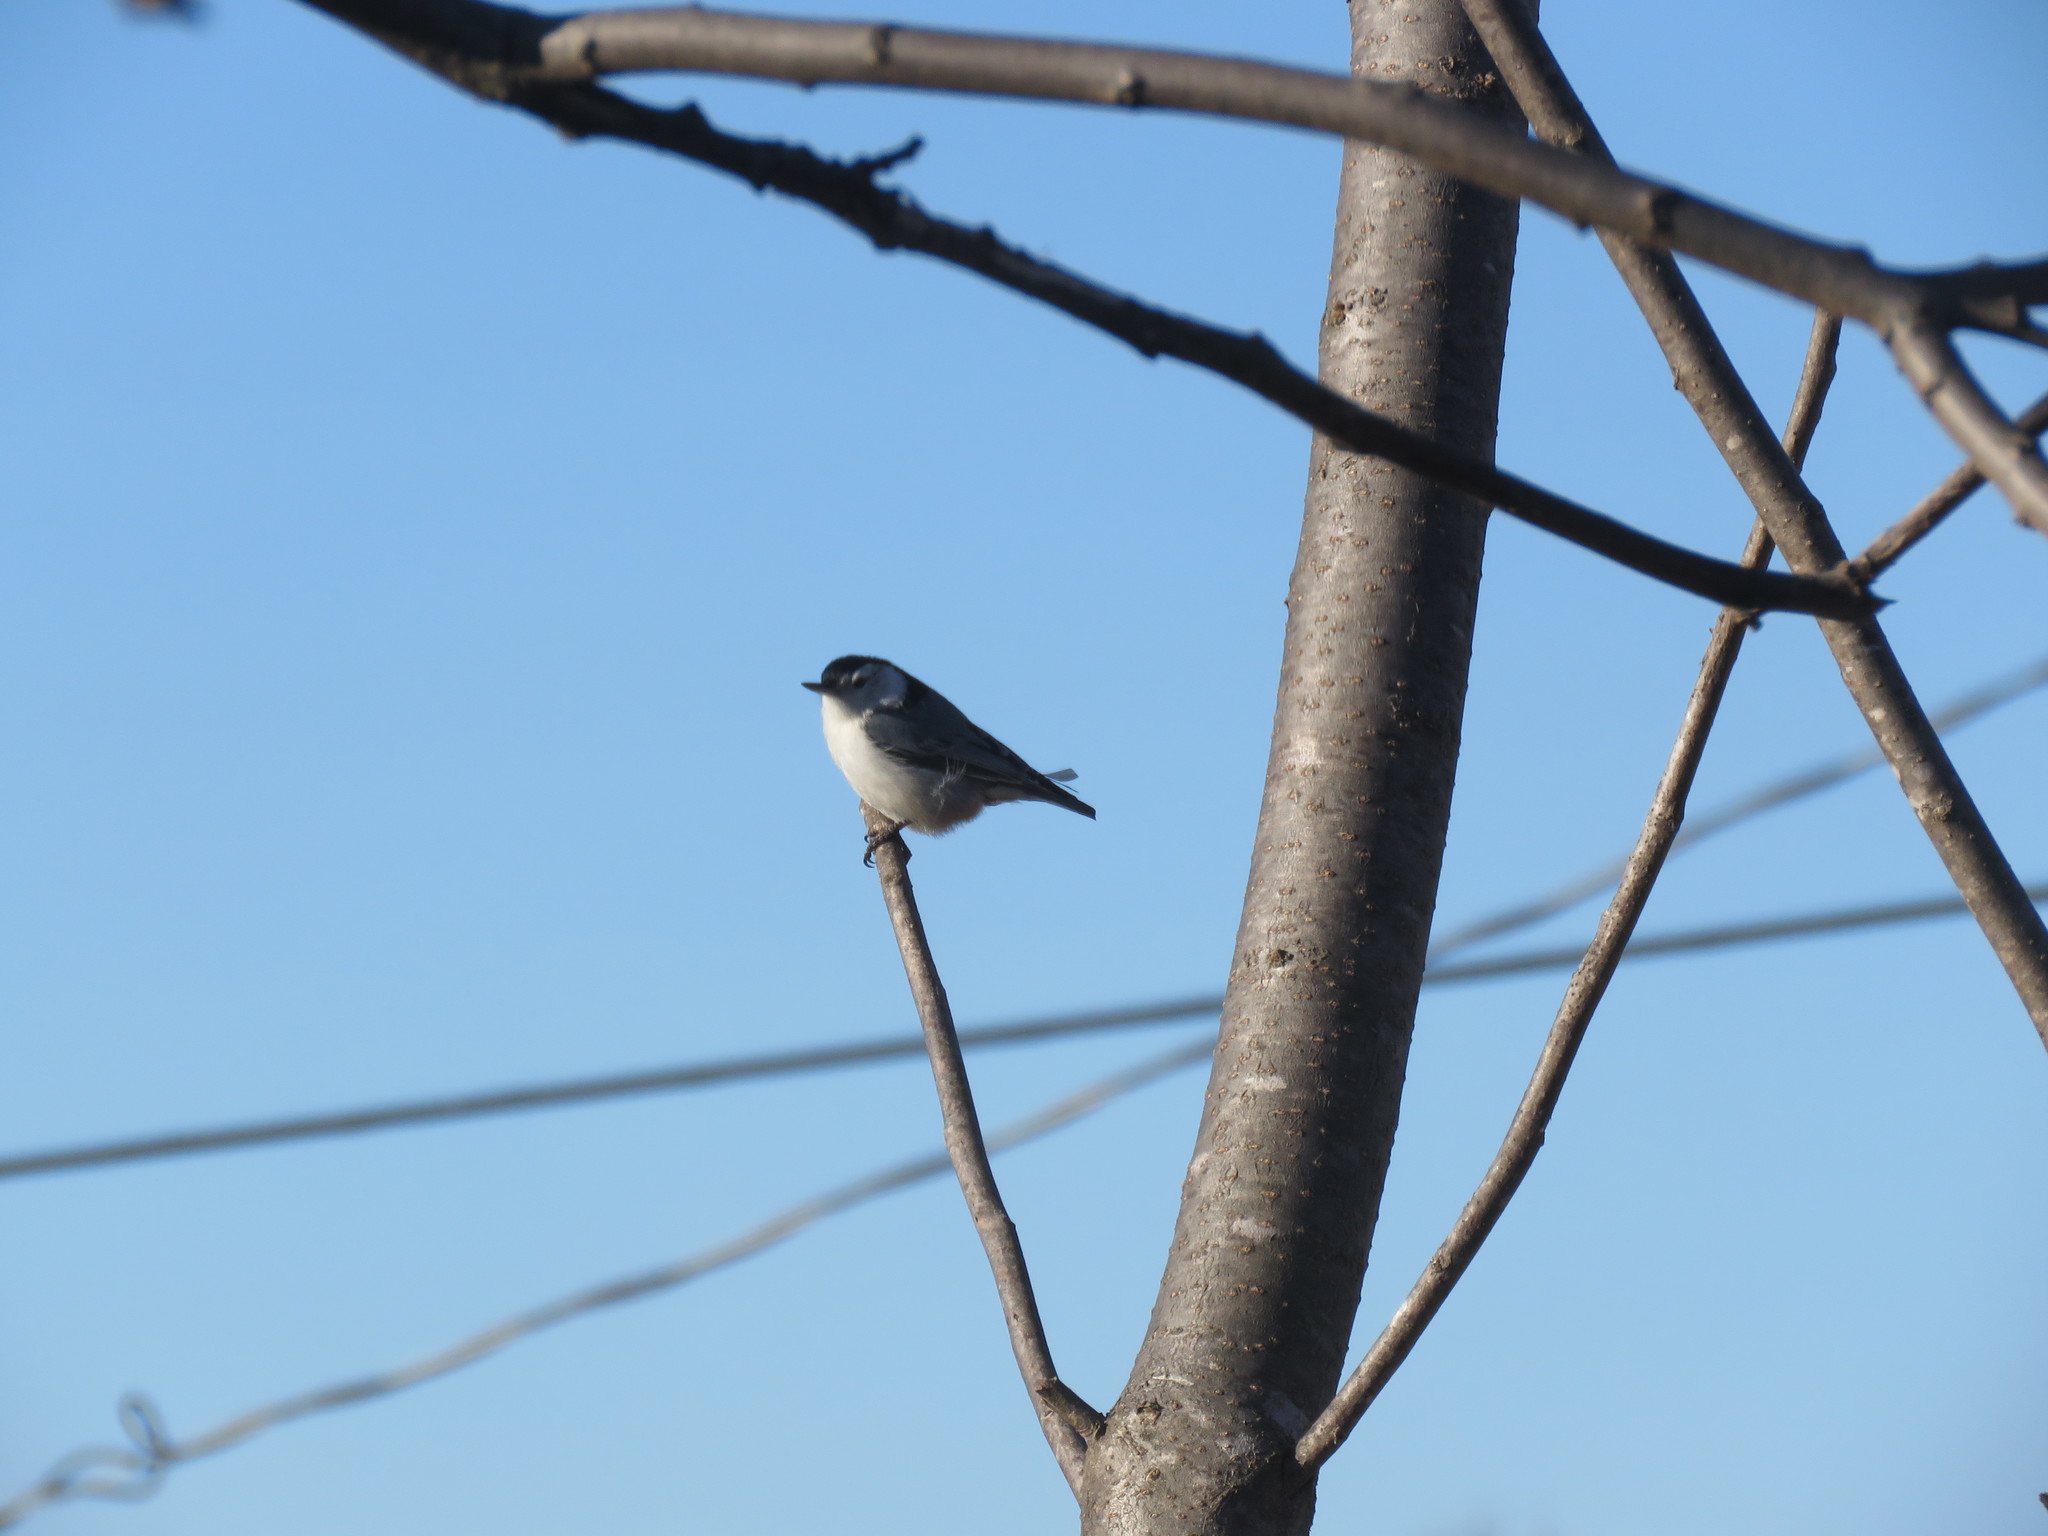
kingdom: Animalia
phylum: Chordata
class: Aves
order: Passeriformes
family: Sittidae
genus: Sitta
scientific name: Sitta carolinensis
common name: White-breasted nuthatch
